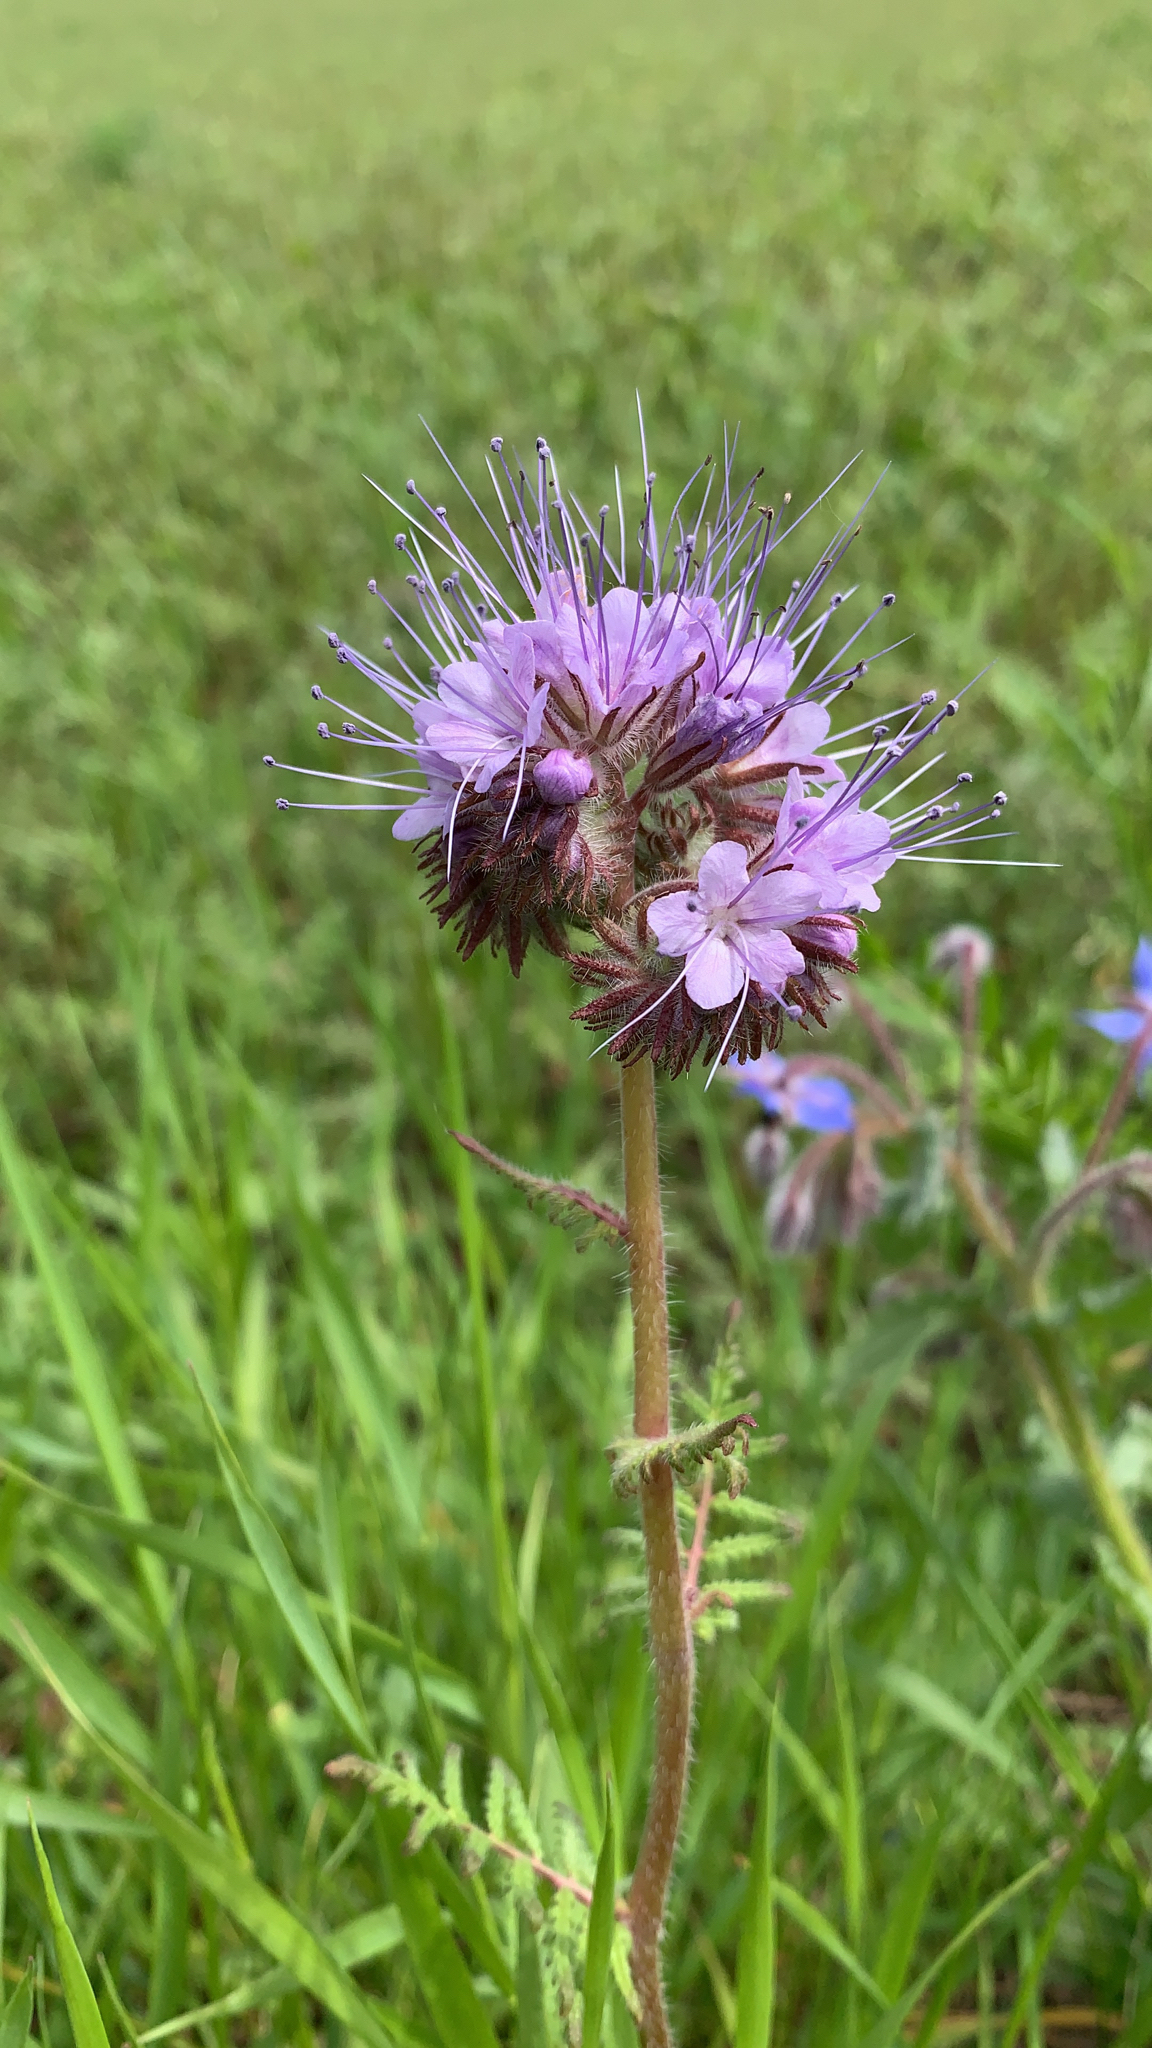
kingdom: Plantae
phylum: Tracheophyta
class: Magnoliopsida
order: Boraginales
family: Hydrophyllaceae
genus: Phacelia
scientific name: Phacelia tanacetifolia
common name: Phacelia
